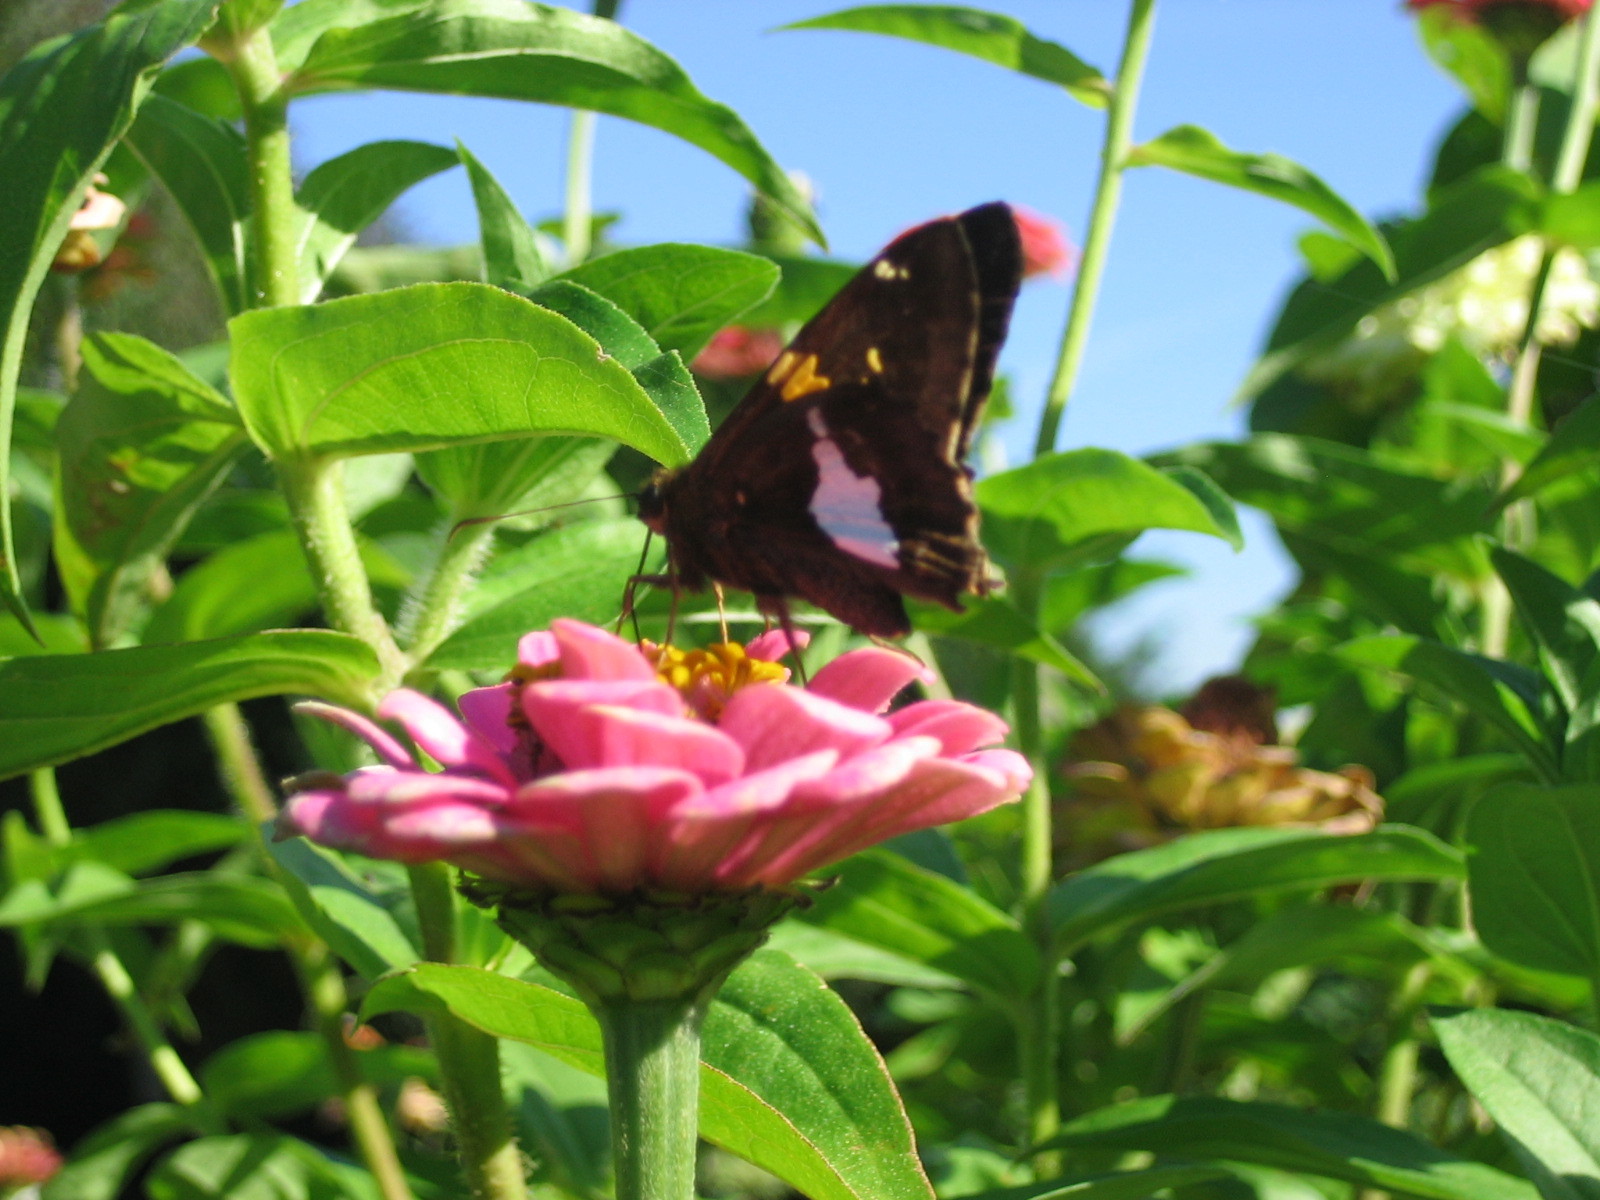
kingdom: Animalia
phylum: Arthropoda
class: Insecta
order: Lepidoptera
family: Hesperiidae
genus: Epargyreus
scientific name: Epargyreus clarus
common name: Silver-spotted skipper
